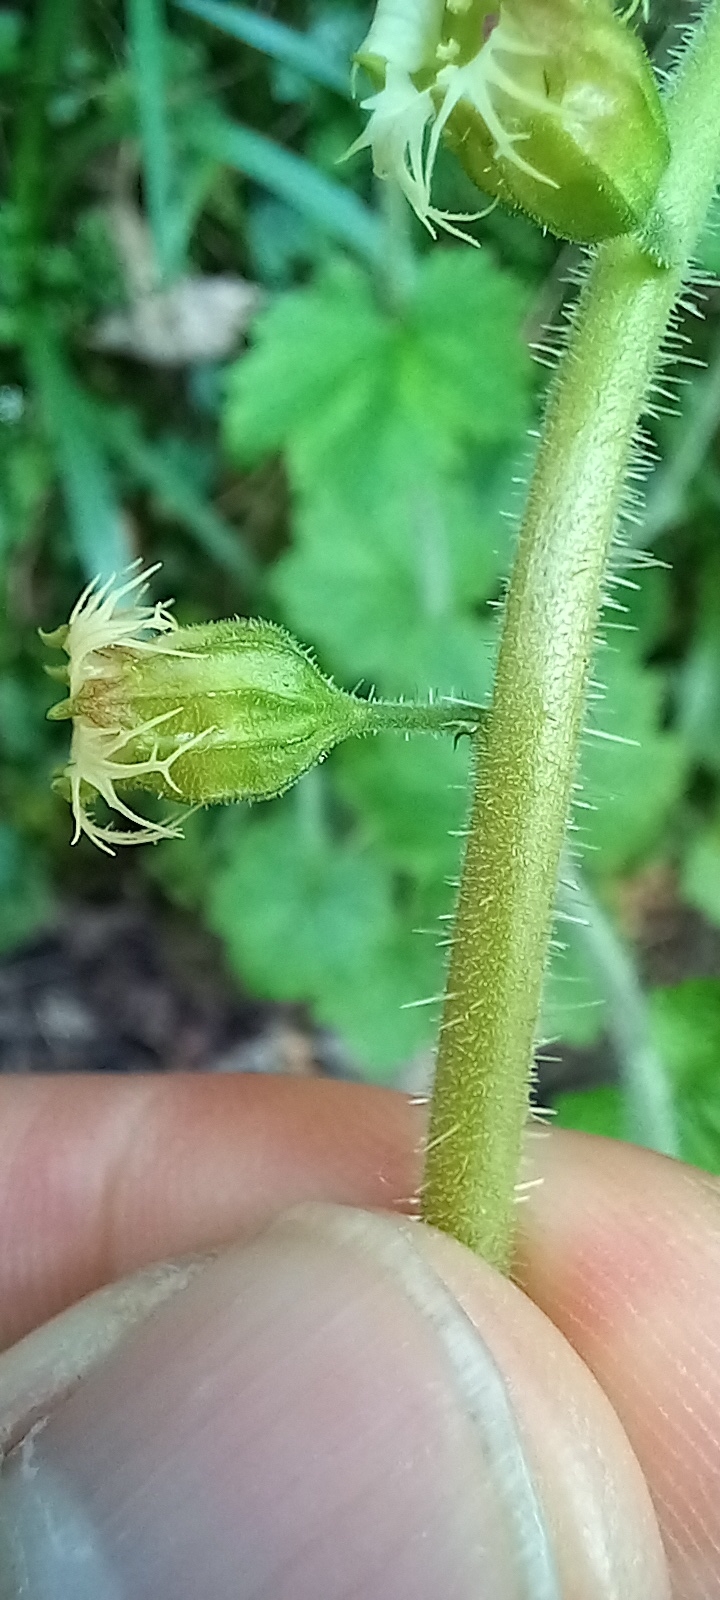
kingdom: Plantae
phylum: Tracheophyta
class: Magnoliopsida
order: Saxifragales
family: Saxifragaceae
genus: Tellima
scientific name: Tellima grandiflora
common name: Fringecups
